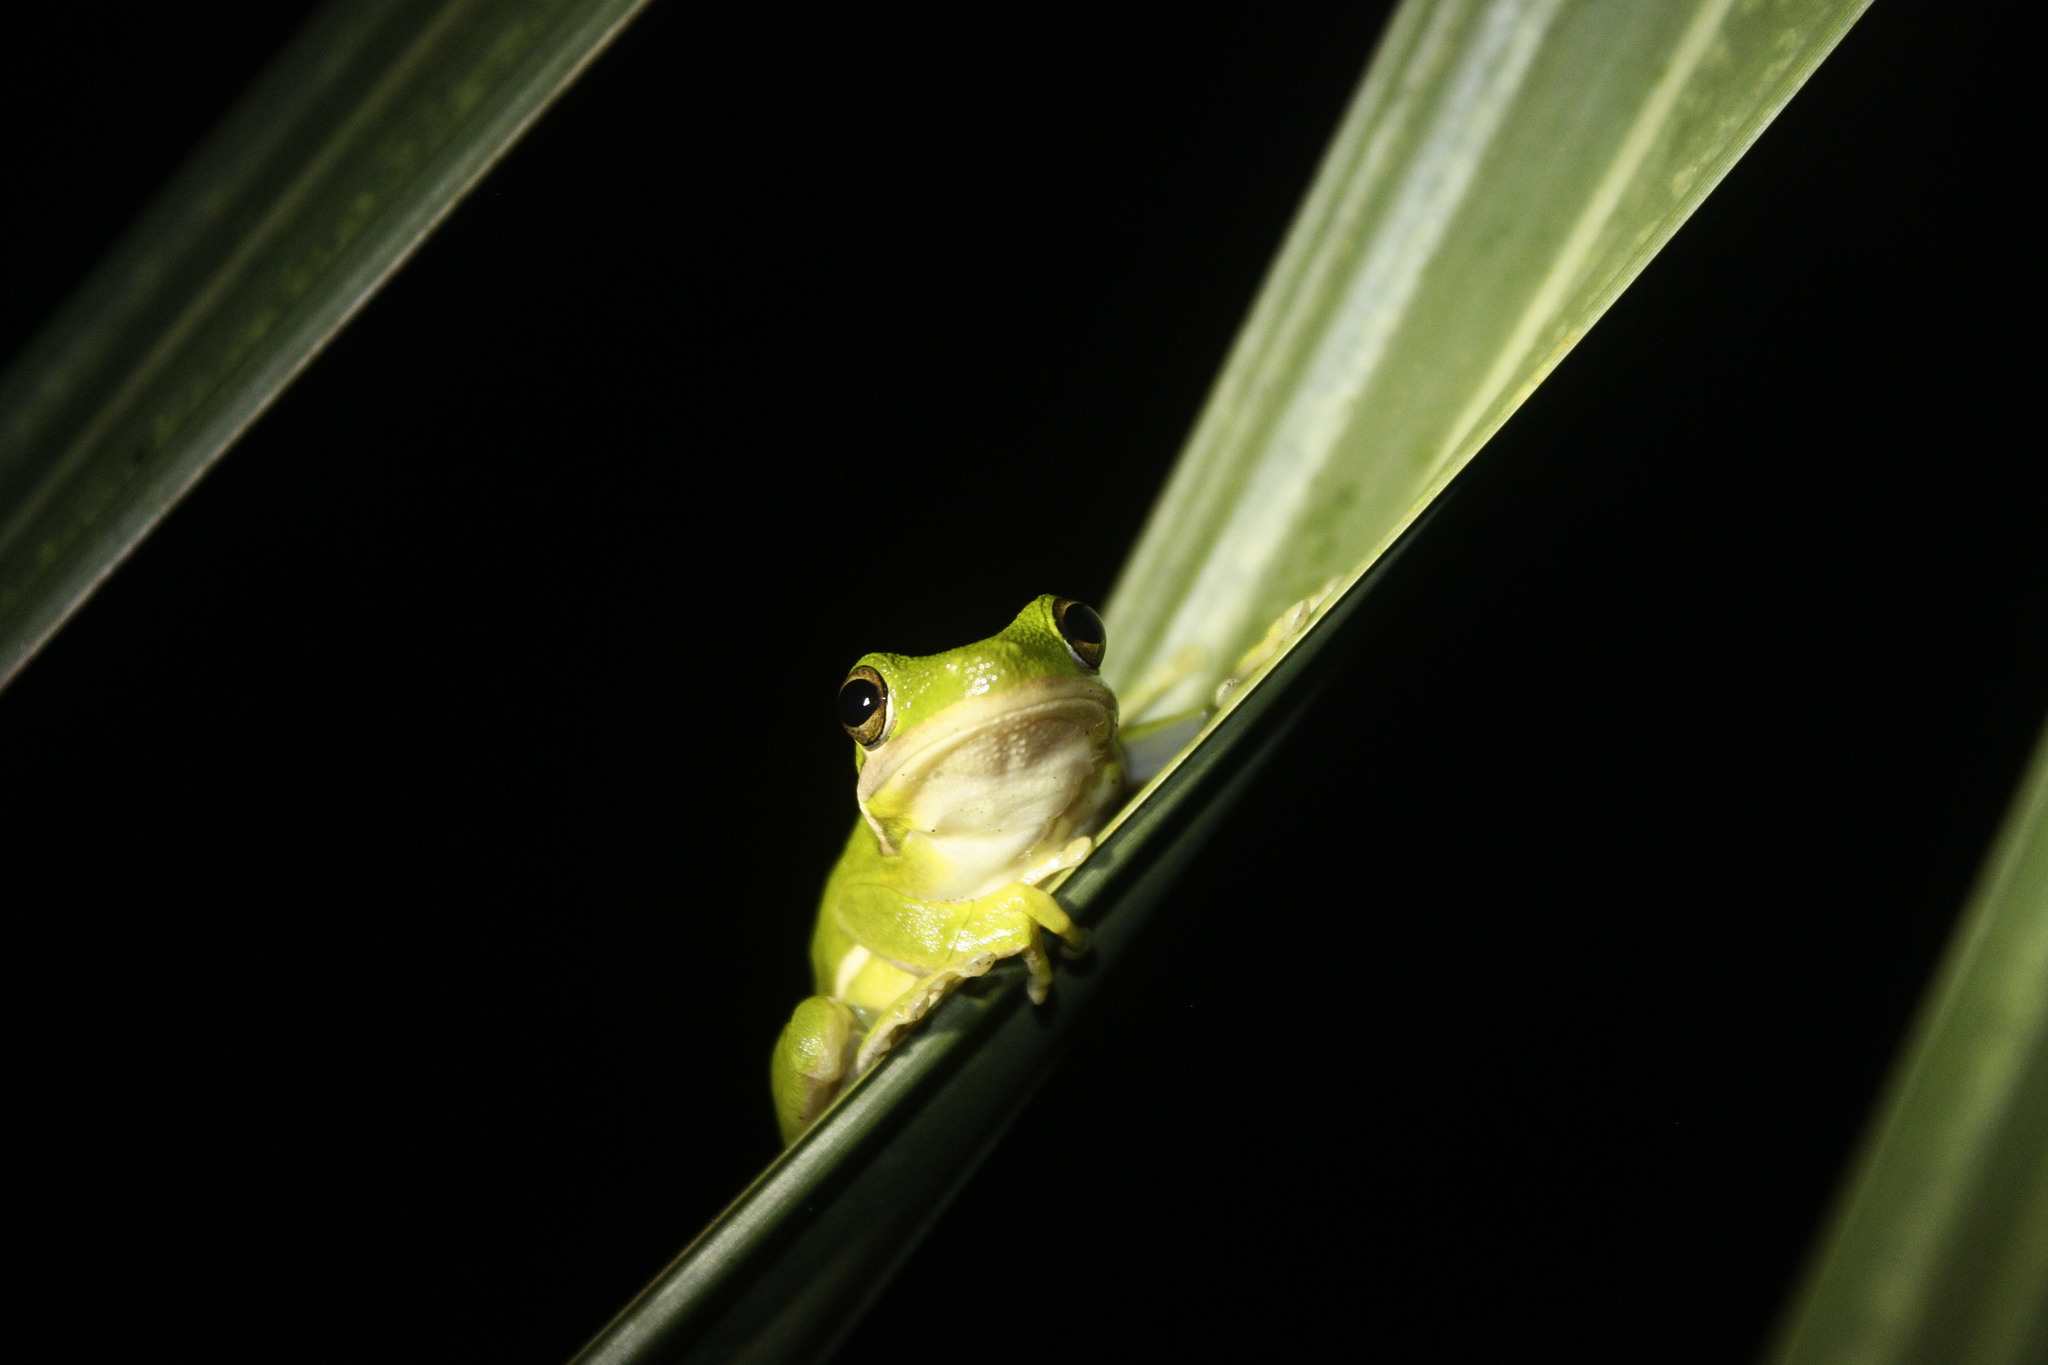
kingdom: Animalia
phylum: Chordata
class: Amphibia
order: Anura
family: Hylidae
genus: Dryophytes
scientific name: Dryophytes cinereus
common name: Green treefrog
